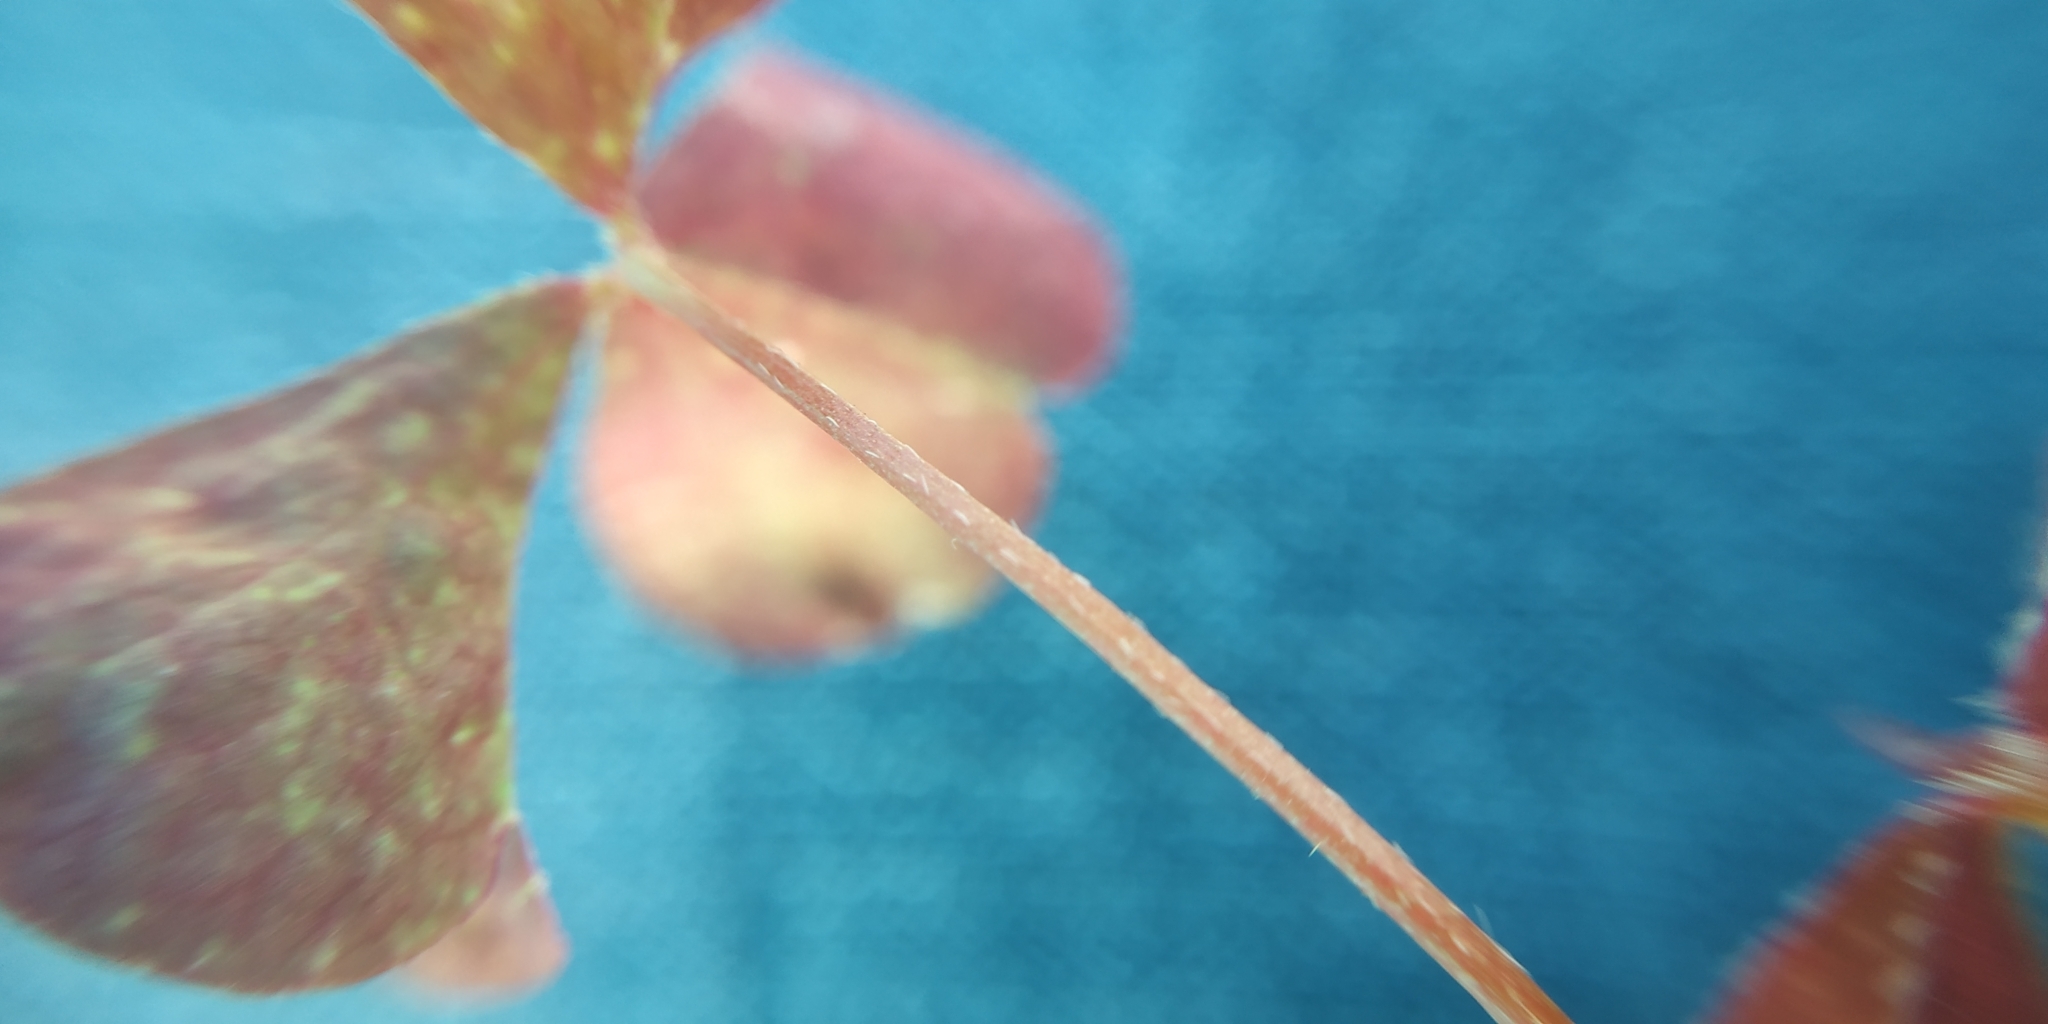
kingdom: Plantae
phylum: Tracheophyta
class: Magnoliopsida
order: Oxalidales
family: Oxalidaceae
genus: Oxalis
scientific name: Oxalis stricta
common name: Upright yellow-sorrel
